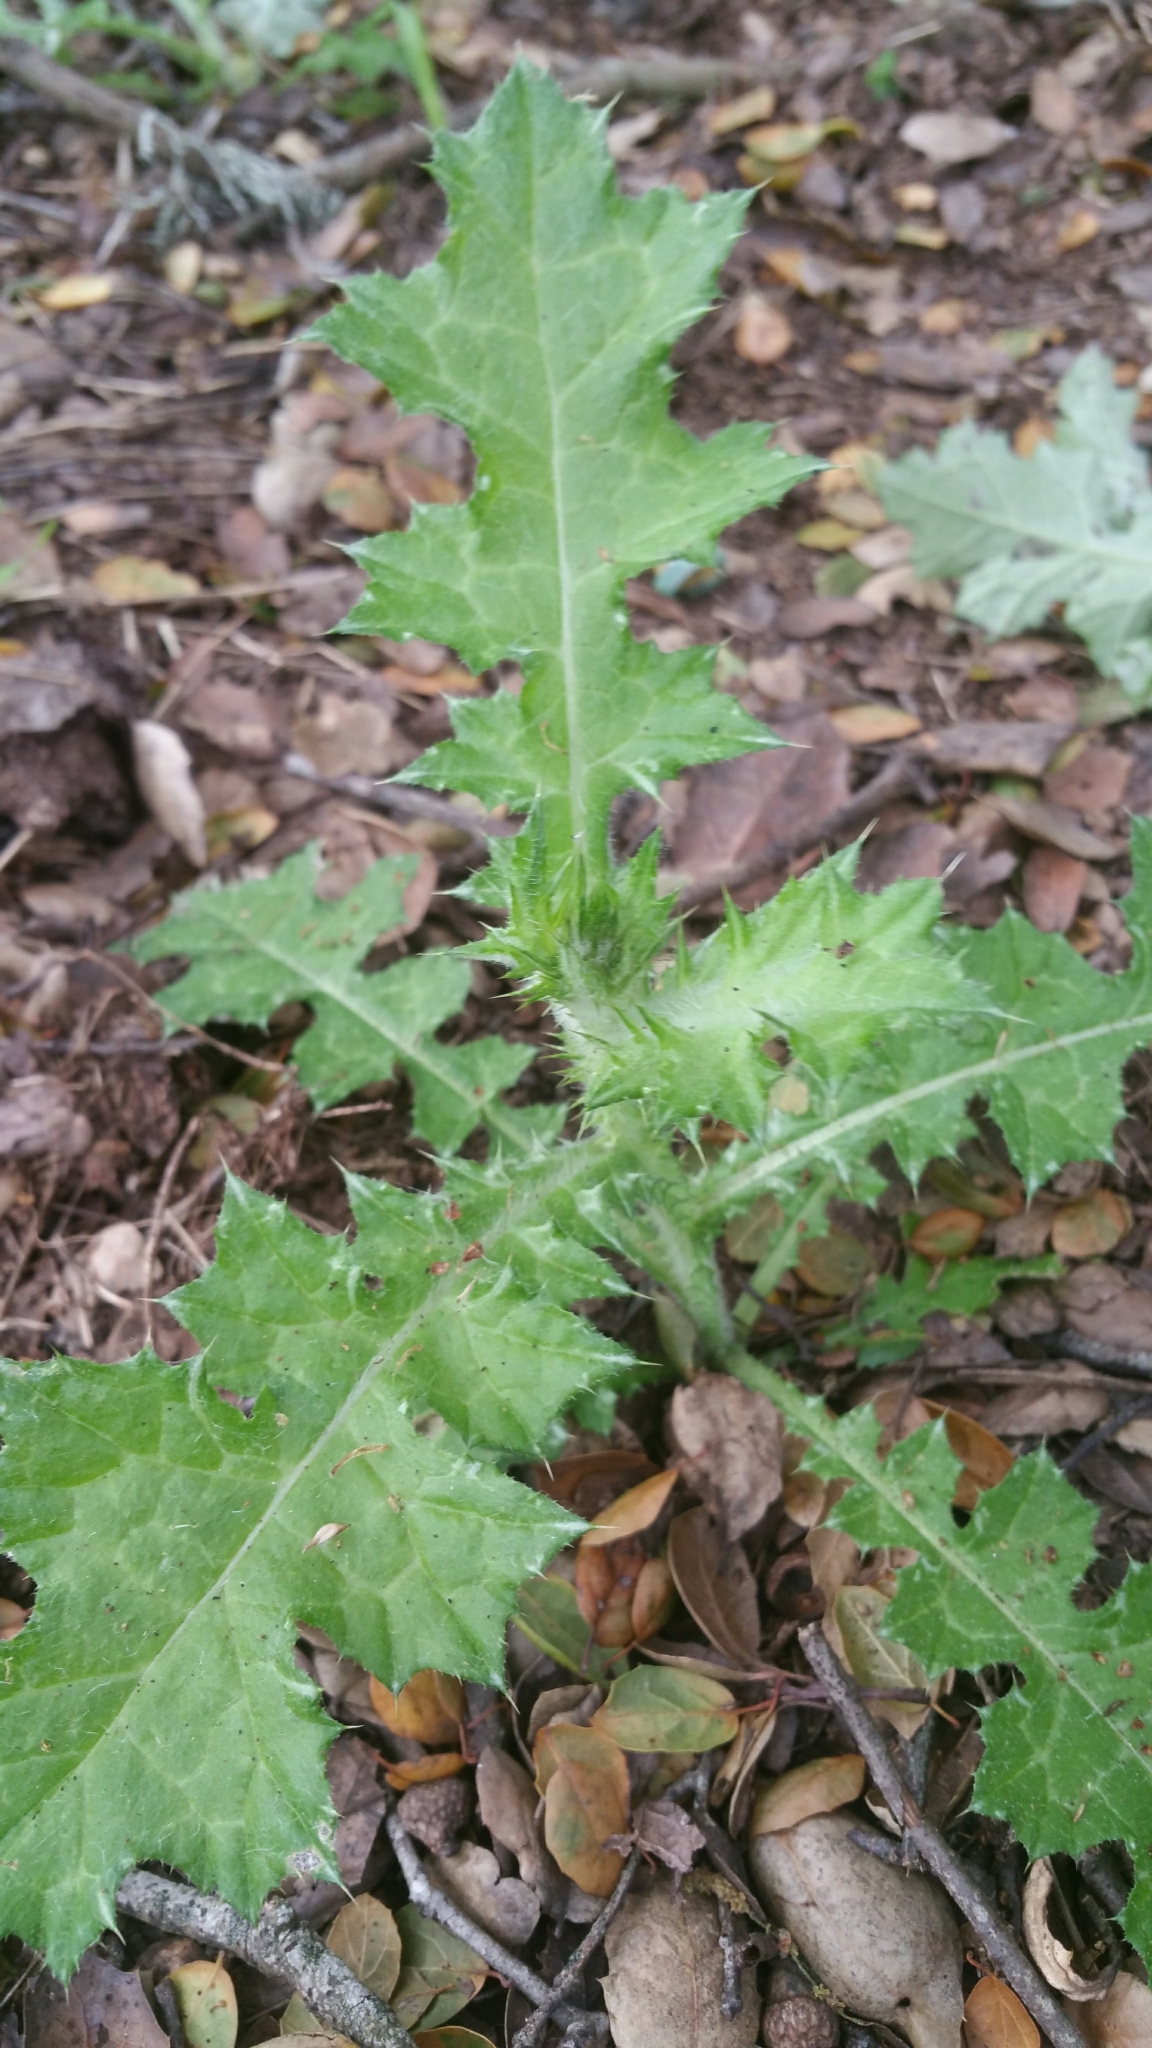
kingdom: Plantae
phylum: Tracheophyta
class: Magnoliopsida
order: Asterales
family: Asteraceae
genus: Carduus
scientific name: Carduus pycnocephalus
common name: Plymouth thistle
